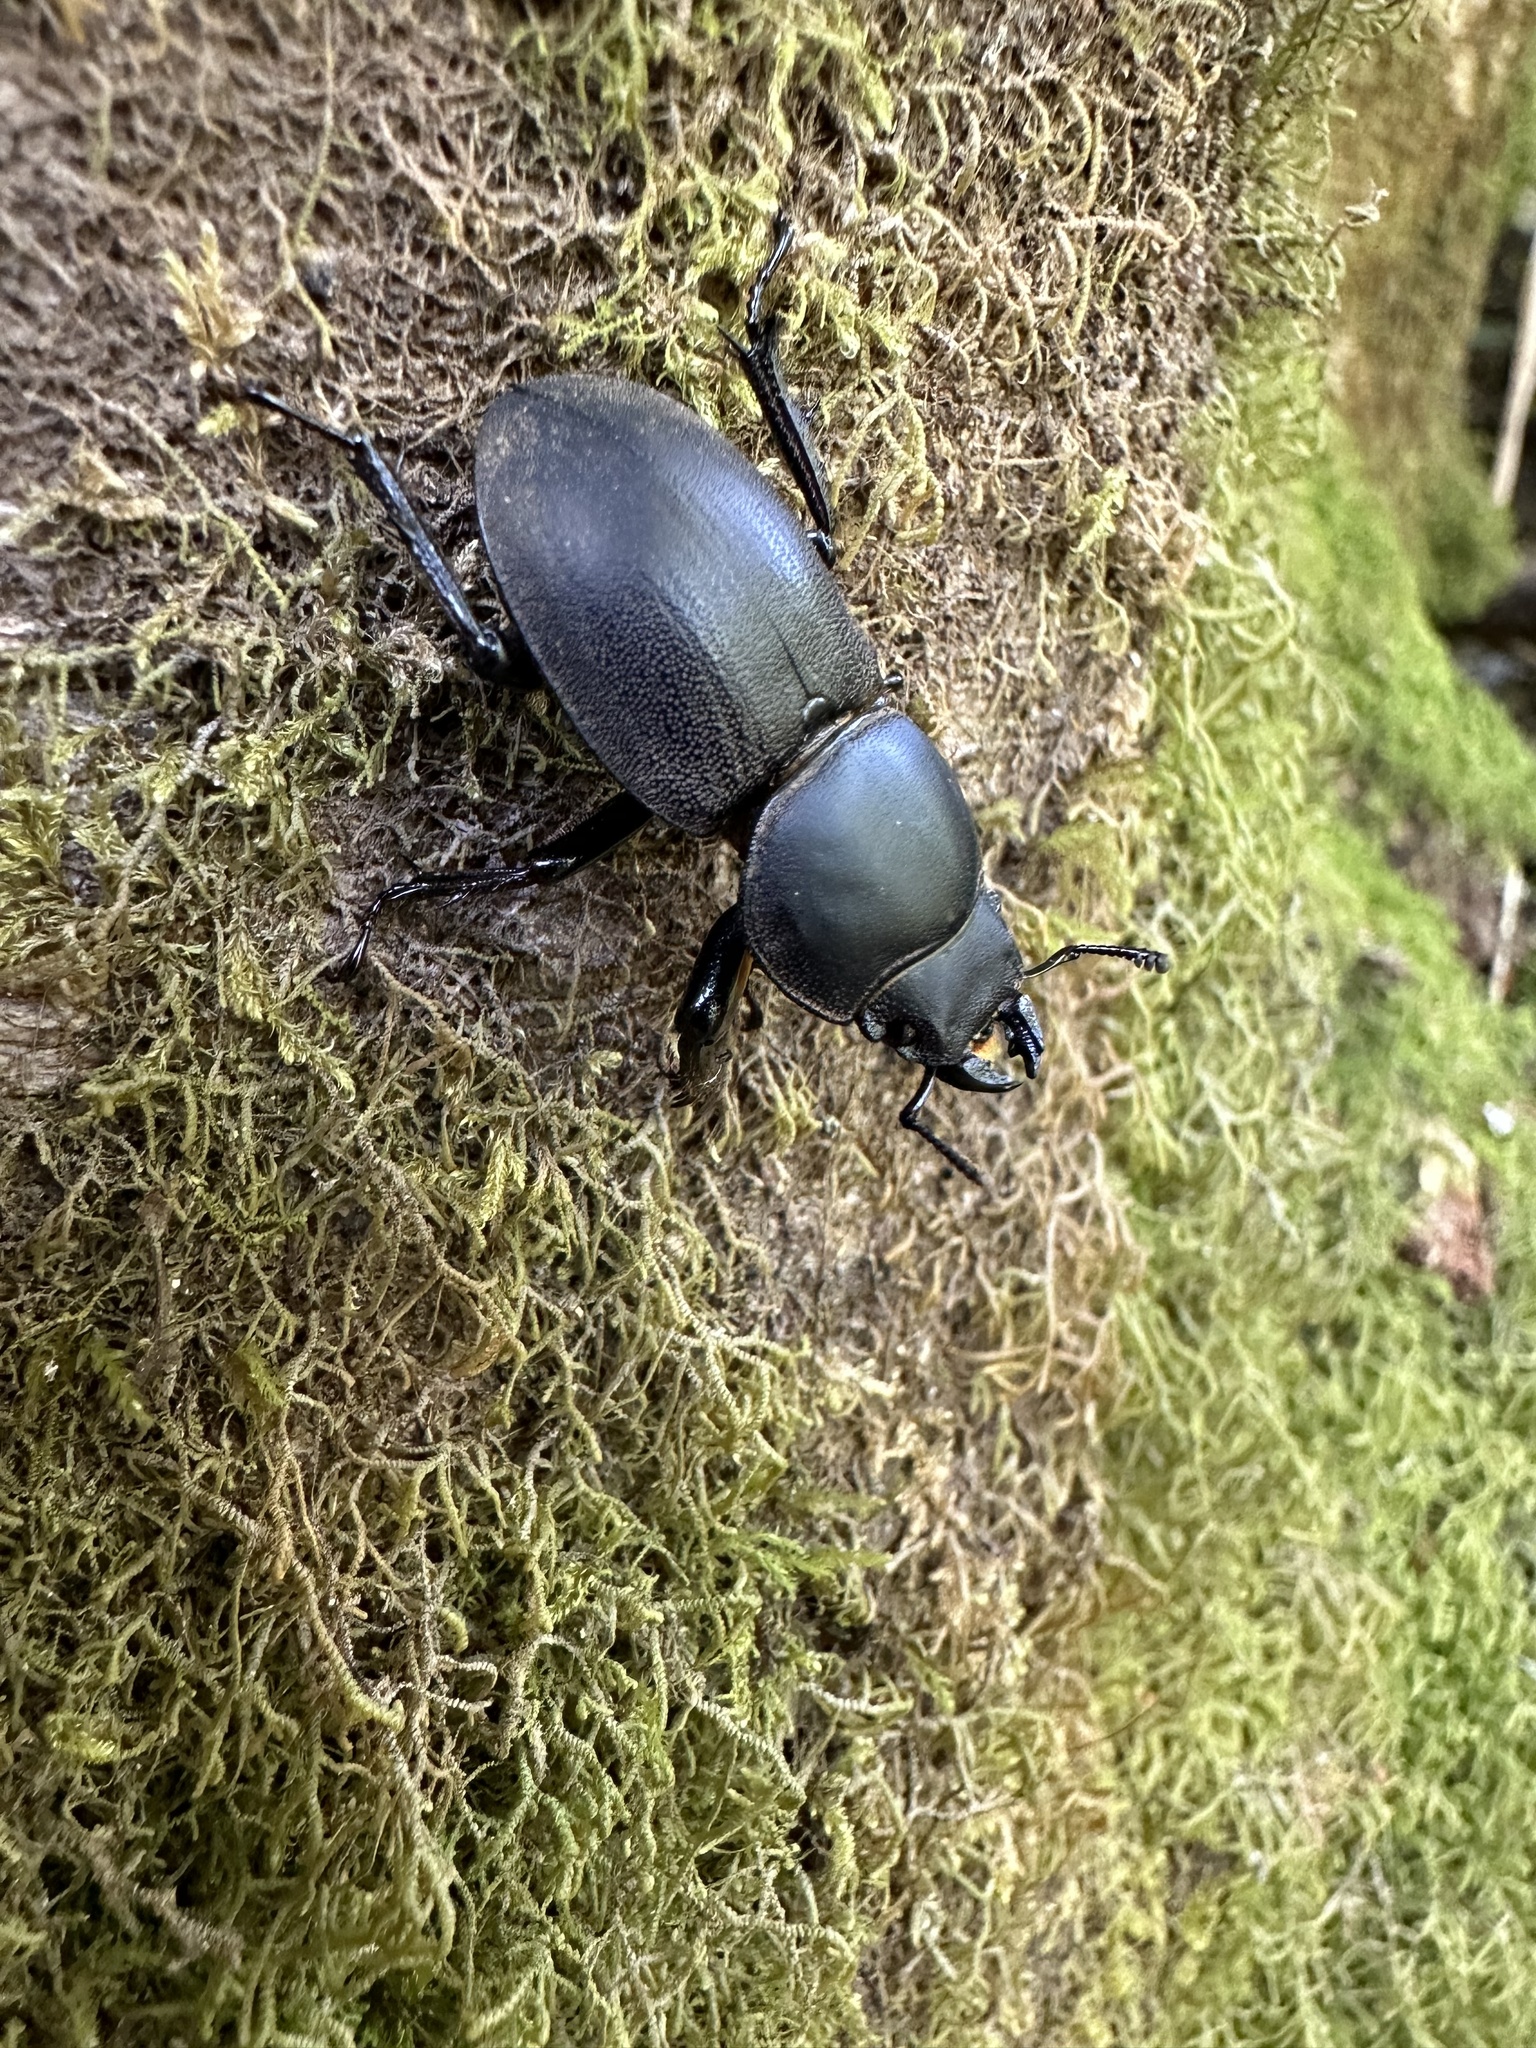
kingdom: Animalia
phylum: Arthropoda
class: Insecta
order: Coleoptera
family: Lucanidae
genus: Apterodorcus
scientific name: Apterodorcus bacchus
